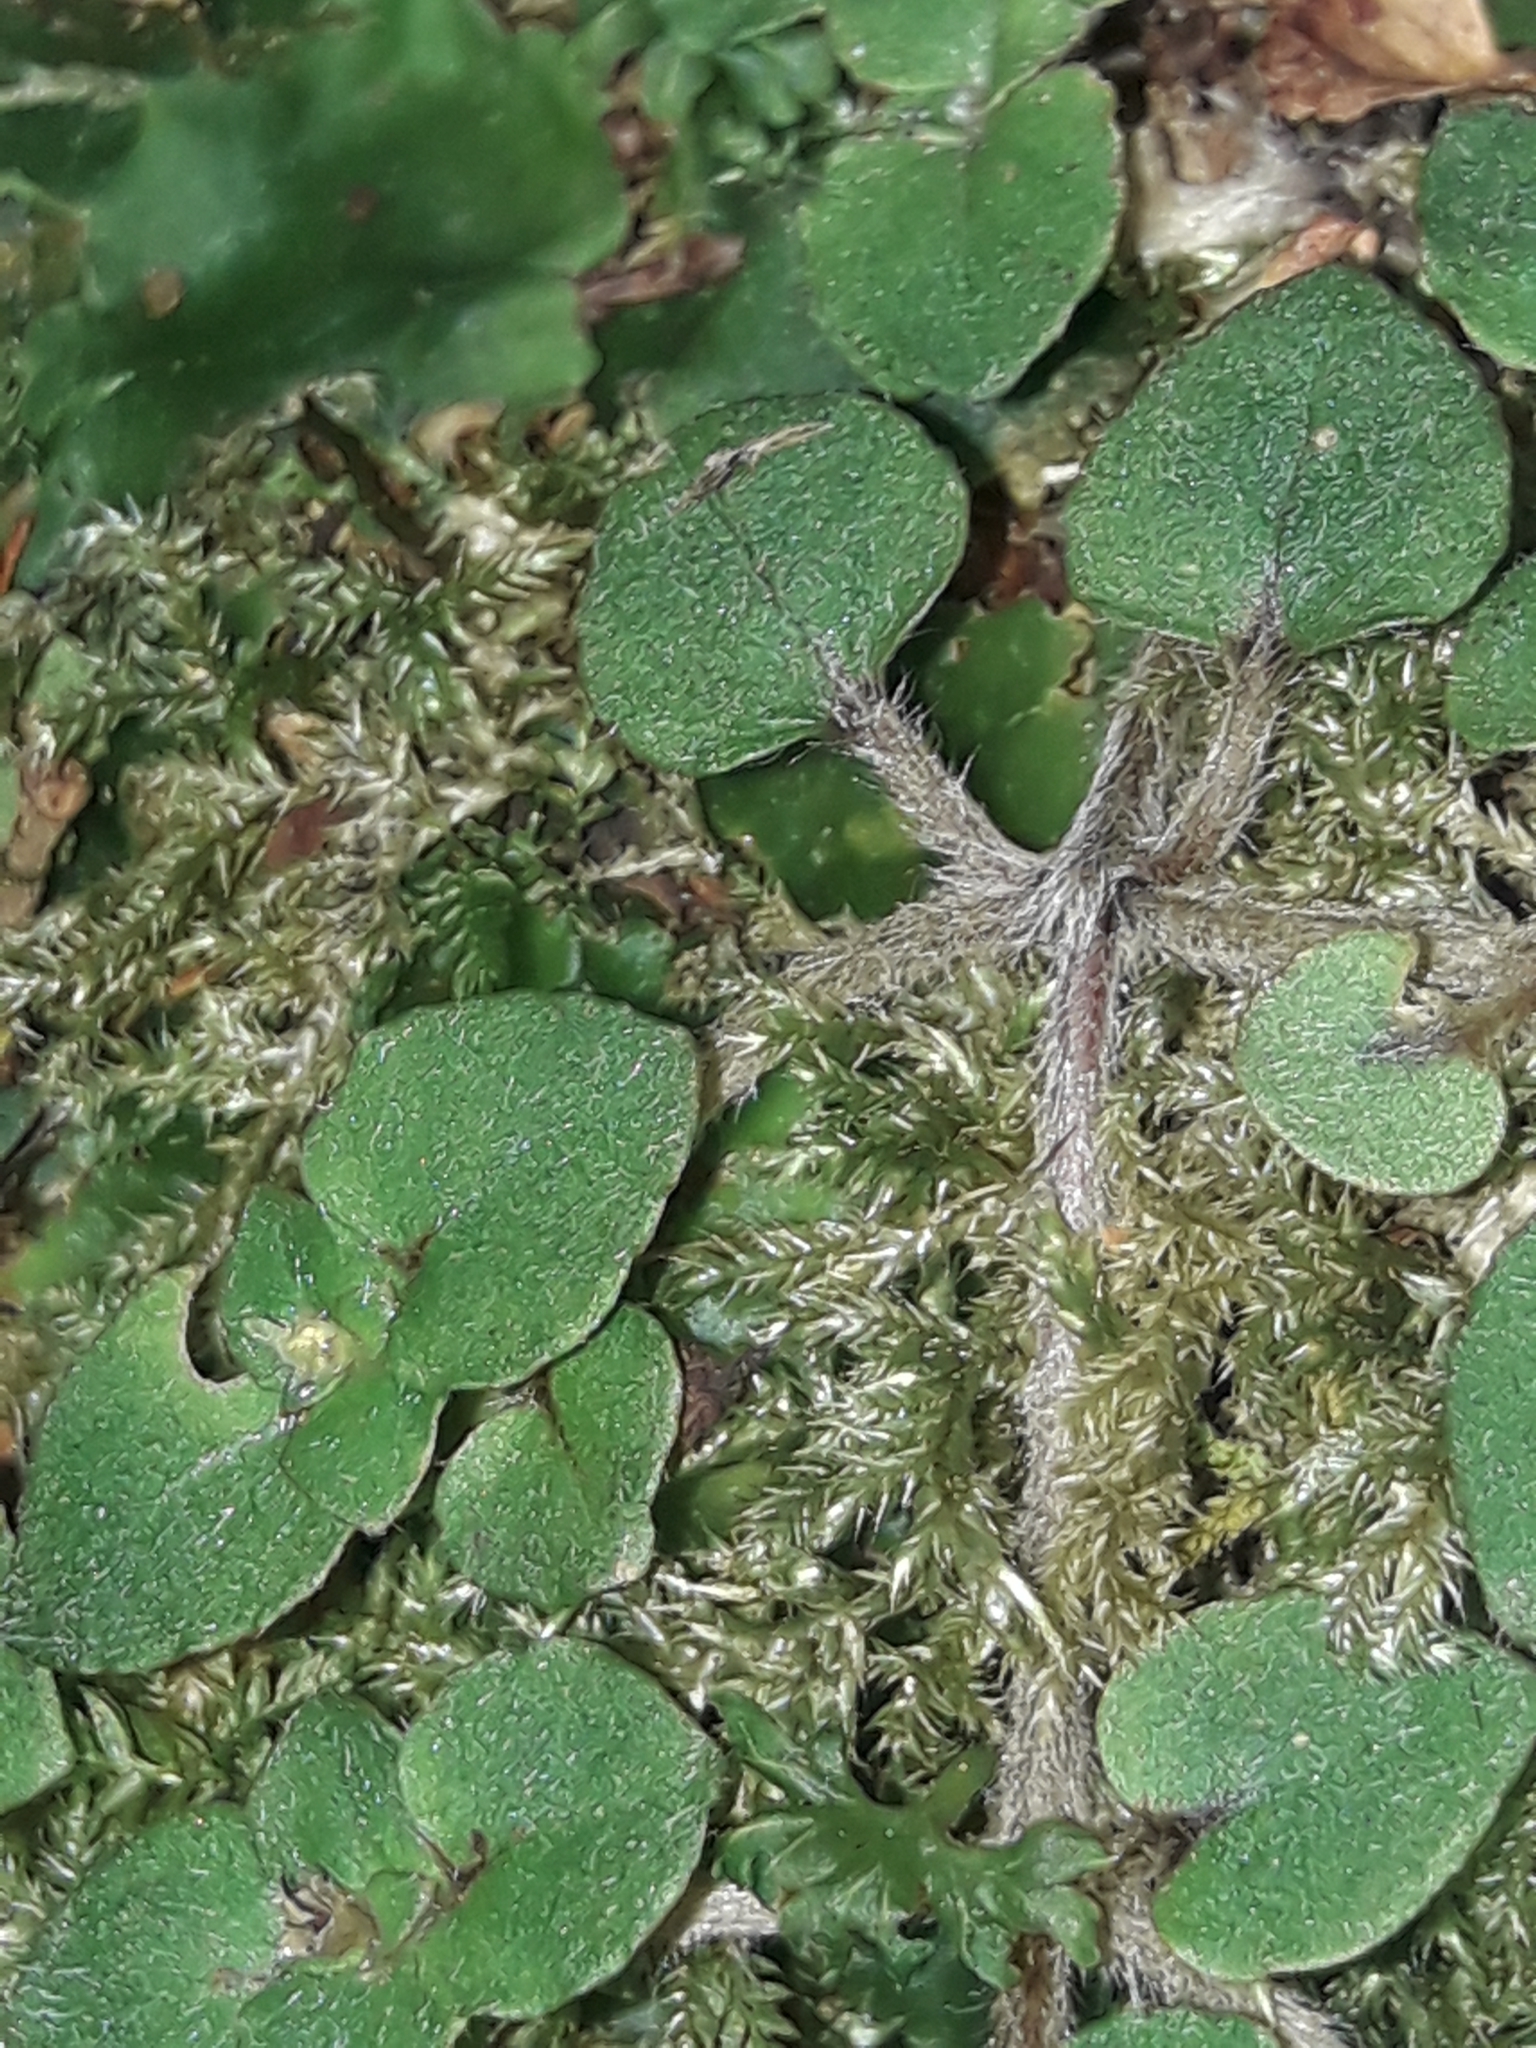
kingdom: Plantae
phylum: Tracheophyta
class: Magnoliopsida
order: Gentianales
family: Rubiaceae
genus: Nertera
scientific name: Nertera villosa
